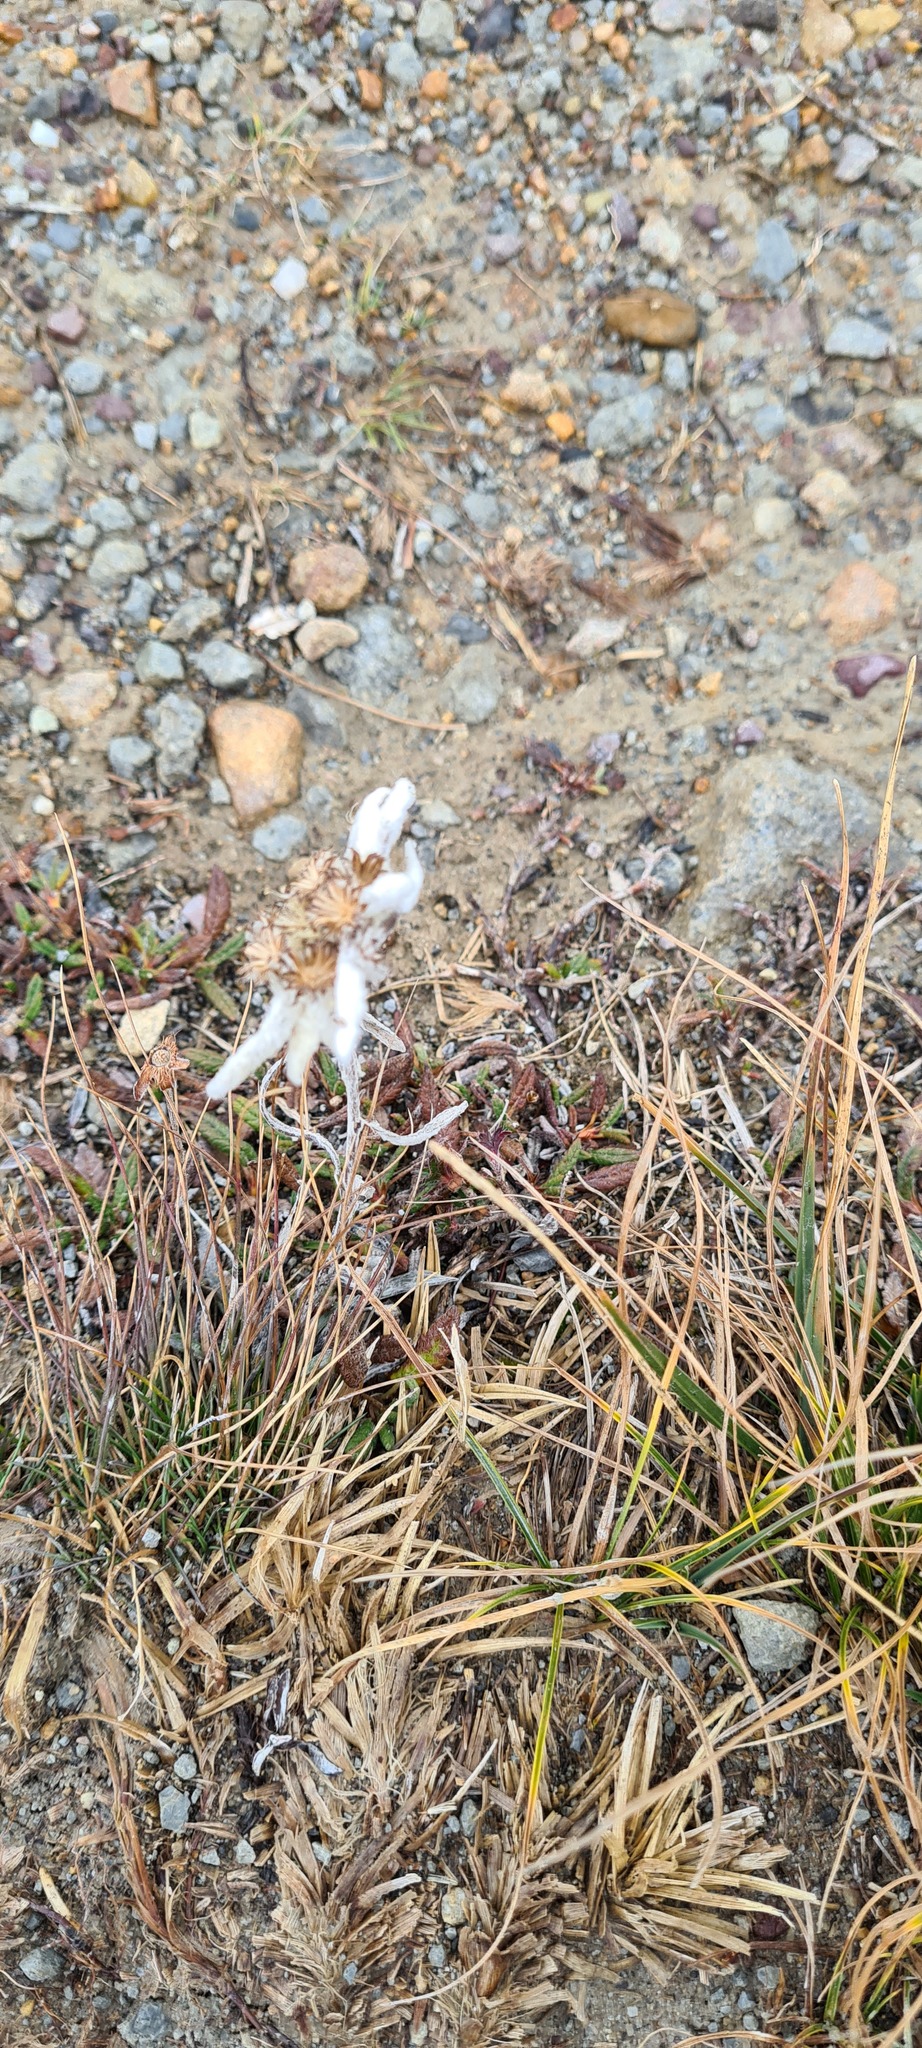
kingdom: Plantae
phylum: Tracheophyta
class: Magnoliopsida
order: Asterales
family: Asteraceae
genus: Leontopodium
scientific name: Leontopodium nivale
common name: Edelweiss
